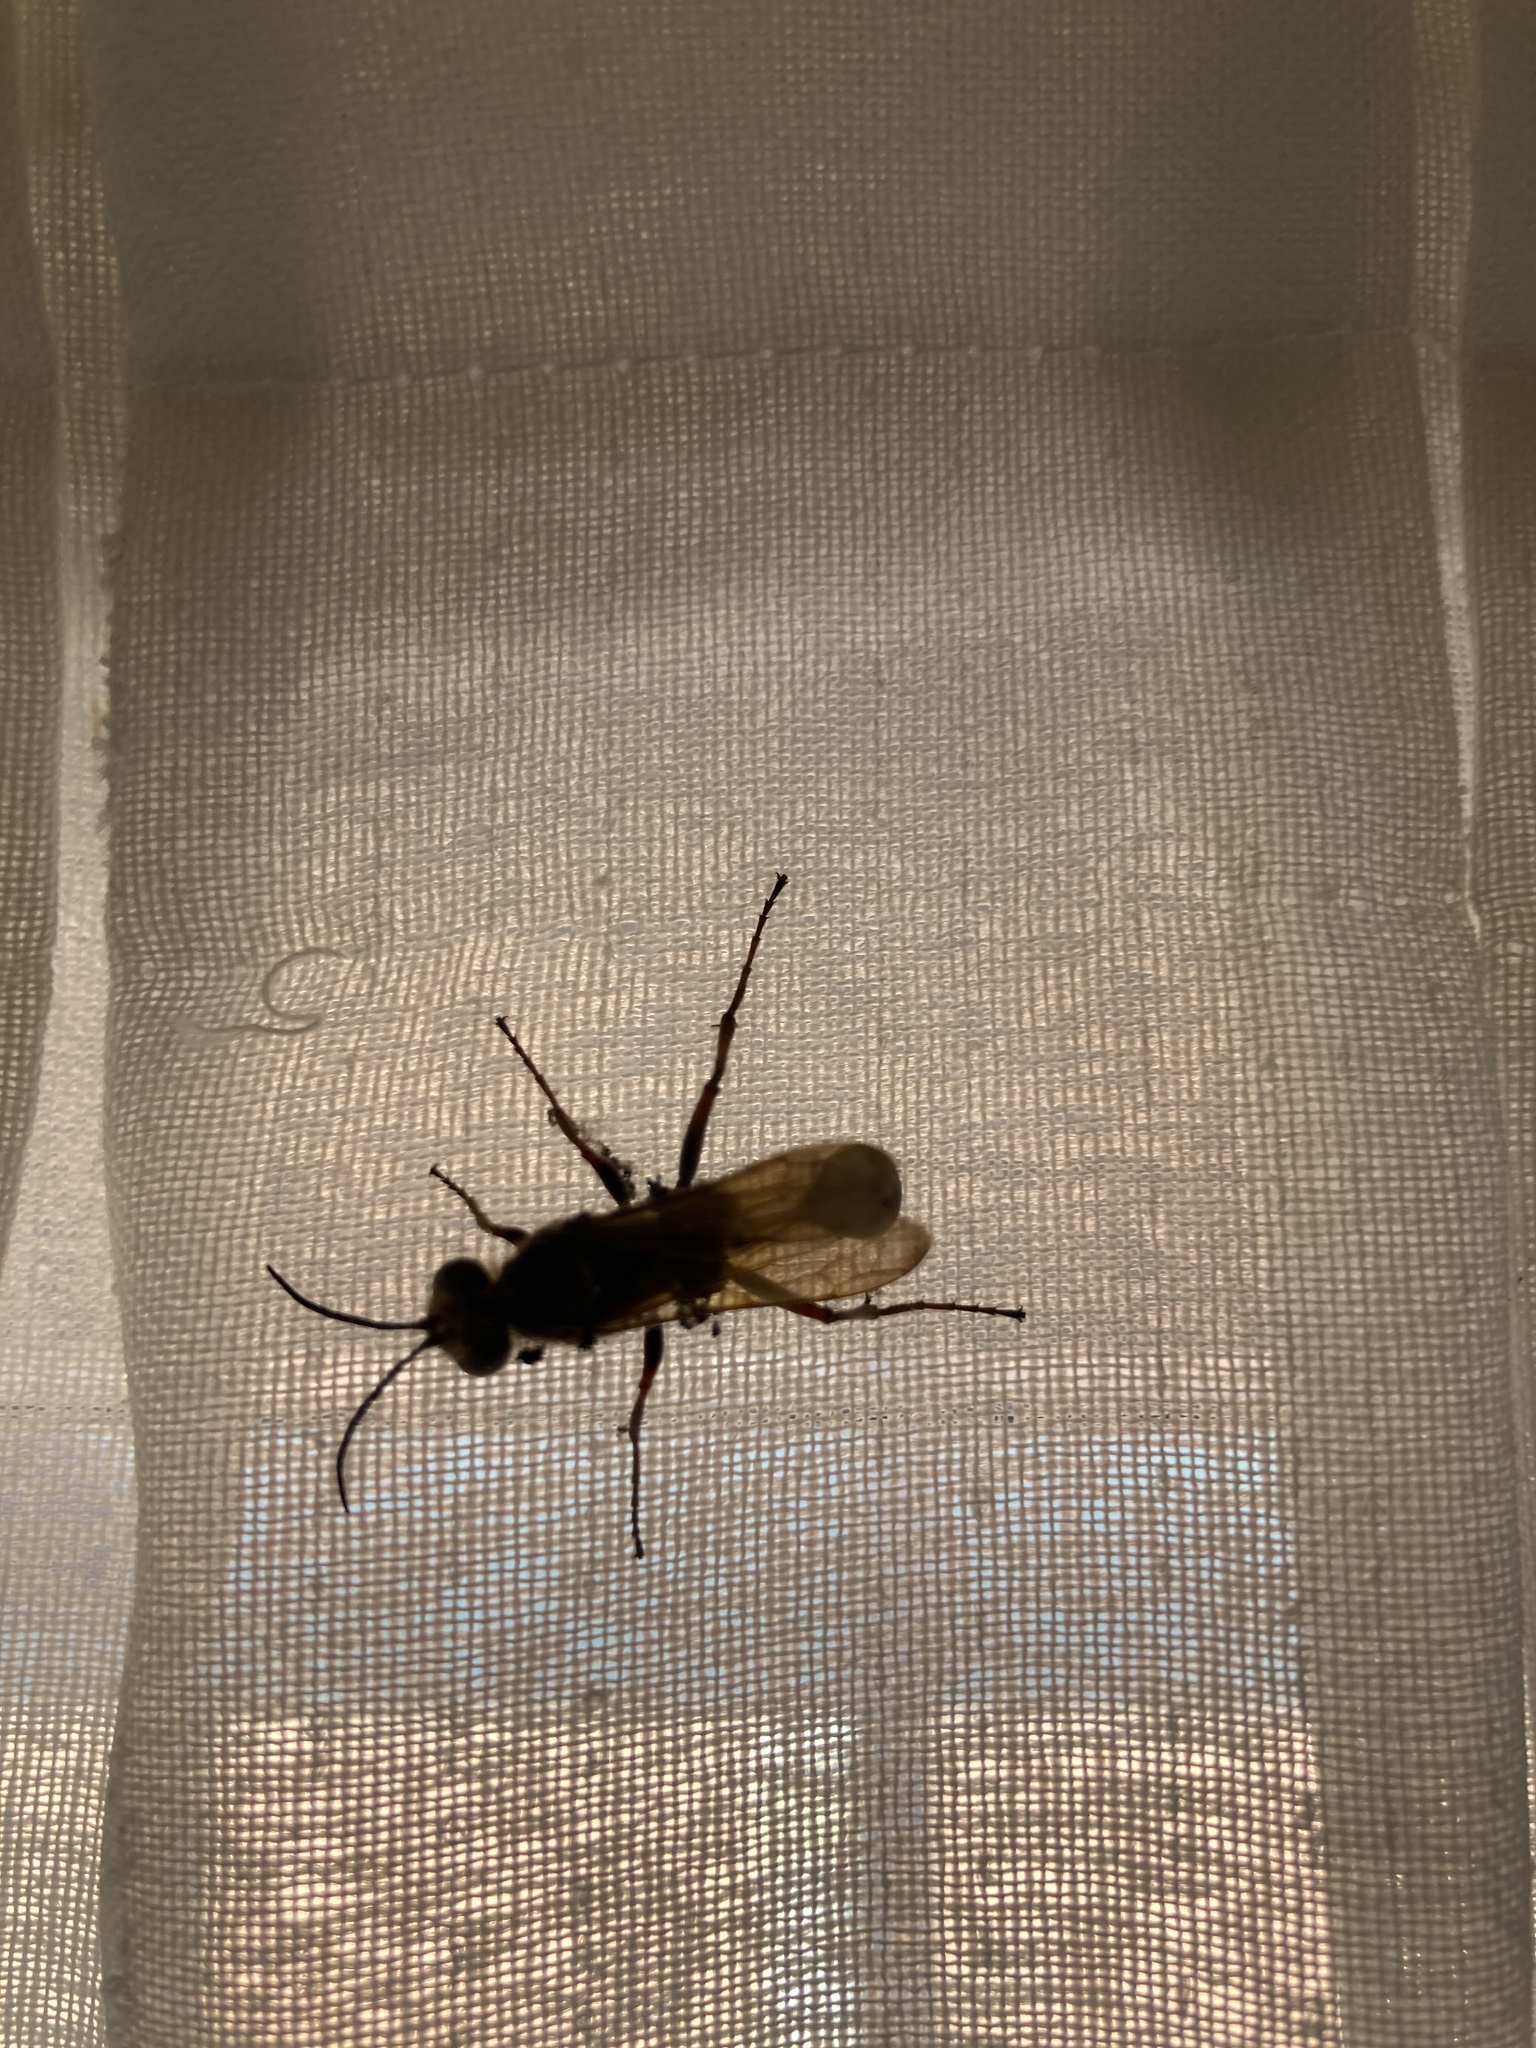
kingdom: Animalia
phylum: Arthropoda
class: Insecta
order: Hymenoptera
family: Sphecidae
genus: Sceliphron
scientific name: Sceliphron curvatum
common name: Pèlopèe
